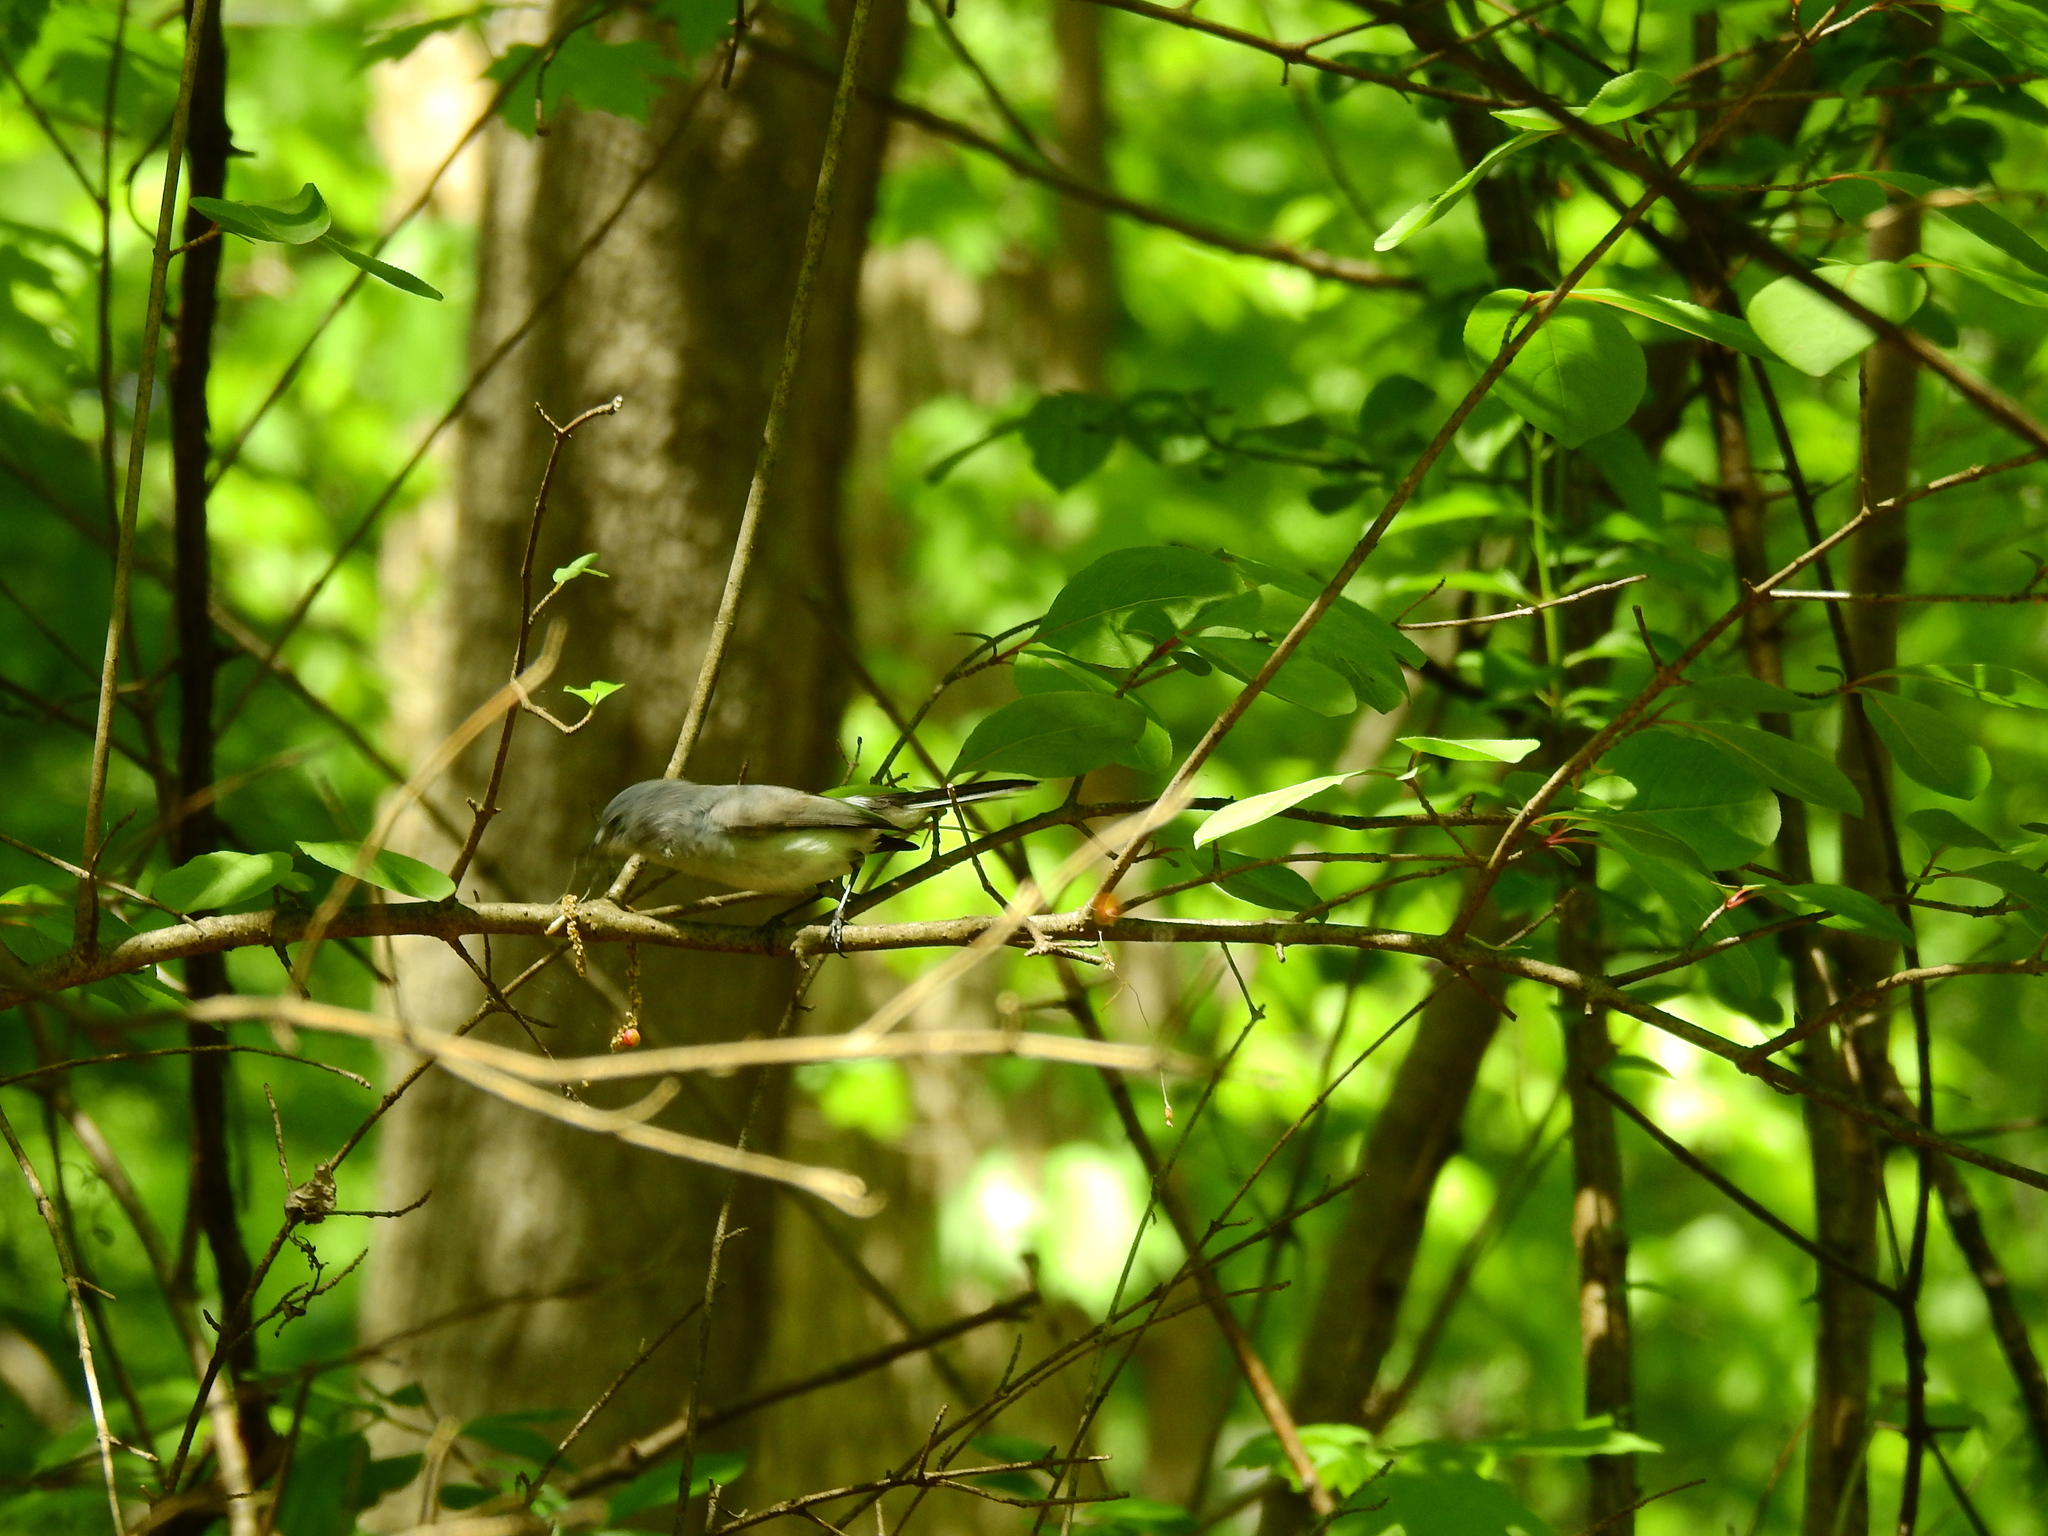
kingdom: Animalia
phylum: Chordata
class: Aves
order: Passeriformes
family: Polioptilidae
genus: Polioptila
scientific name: Polioptila caerulea
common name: Blue-gray gnatcatcher
